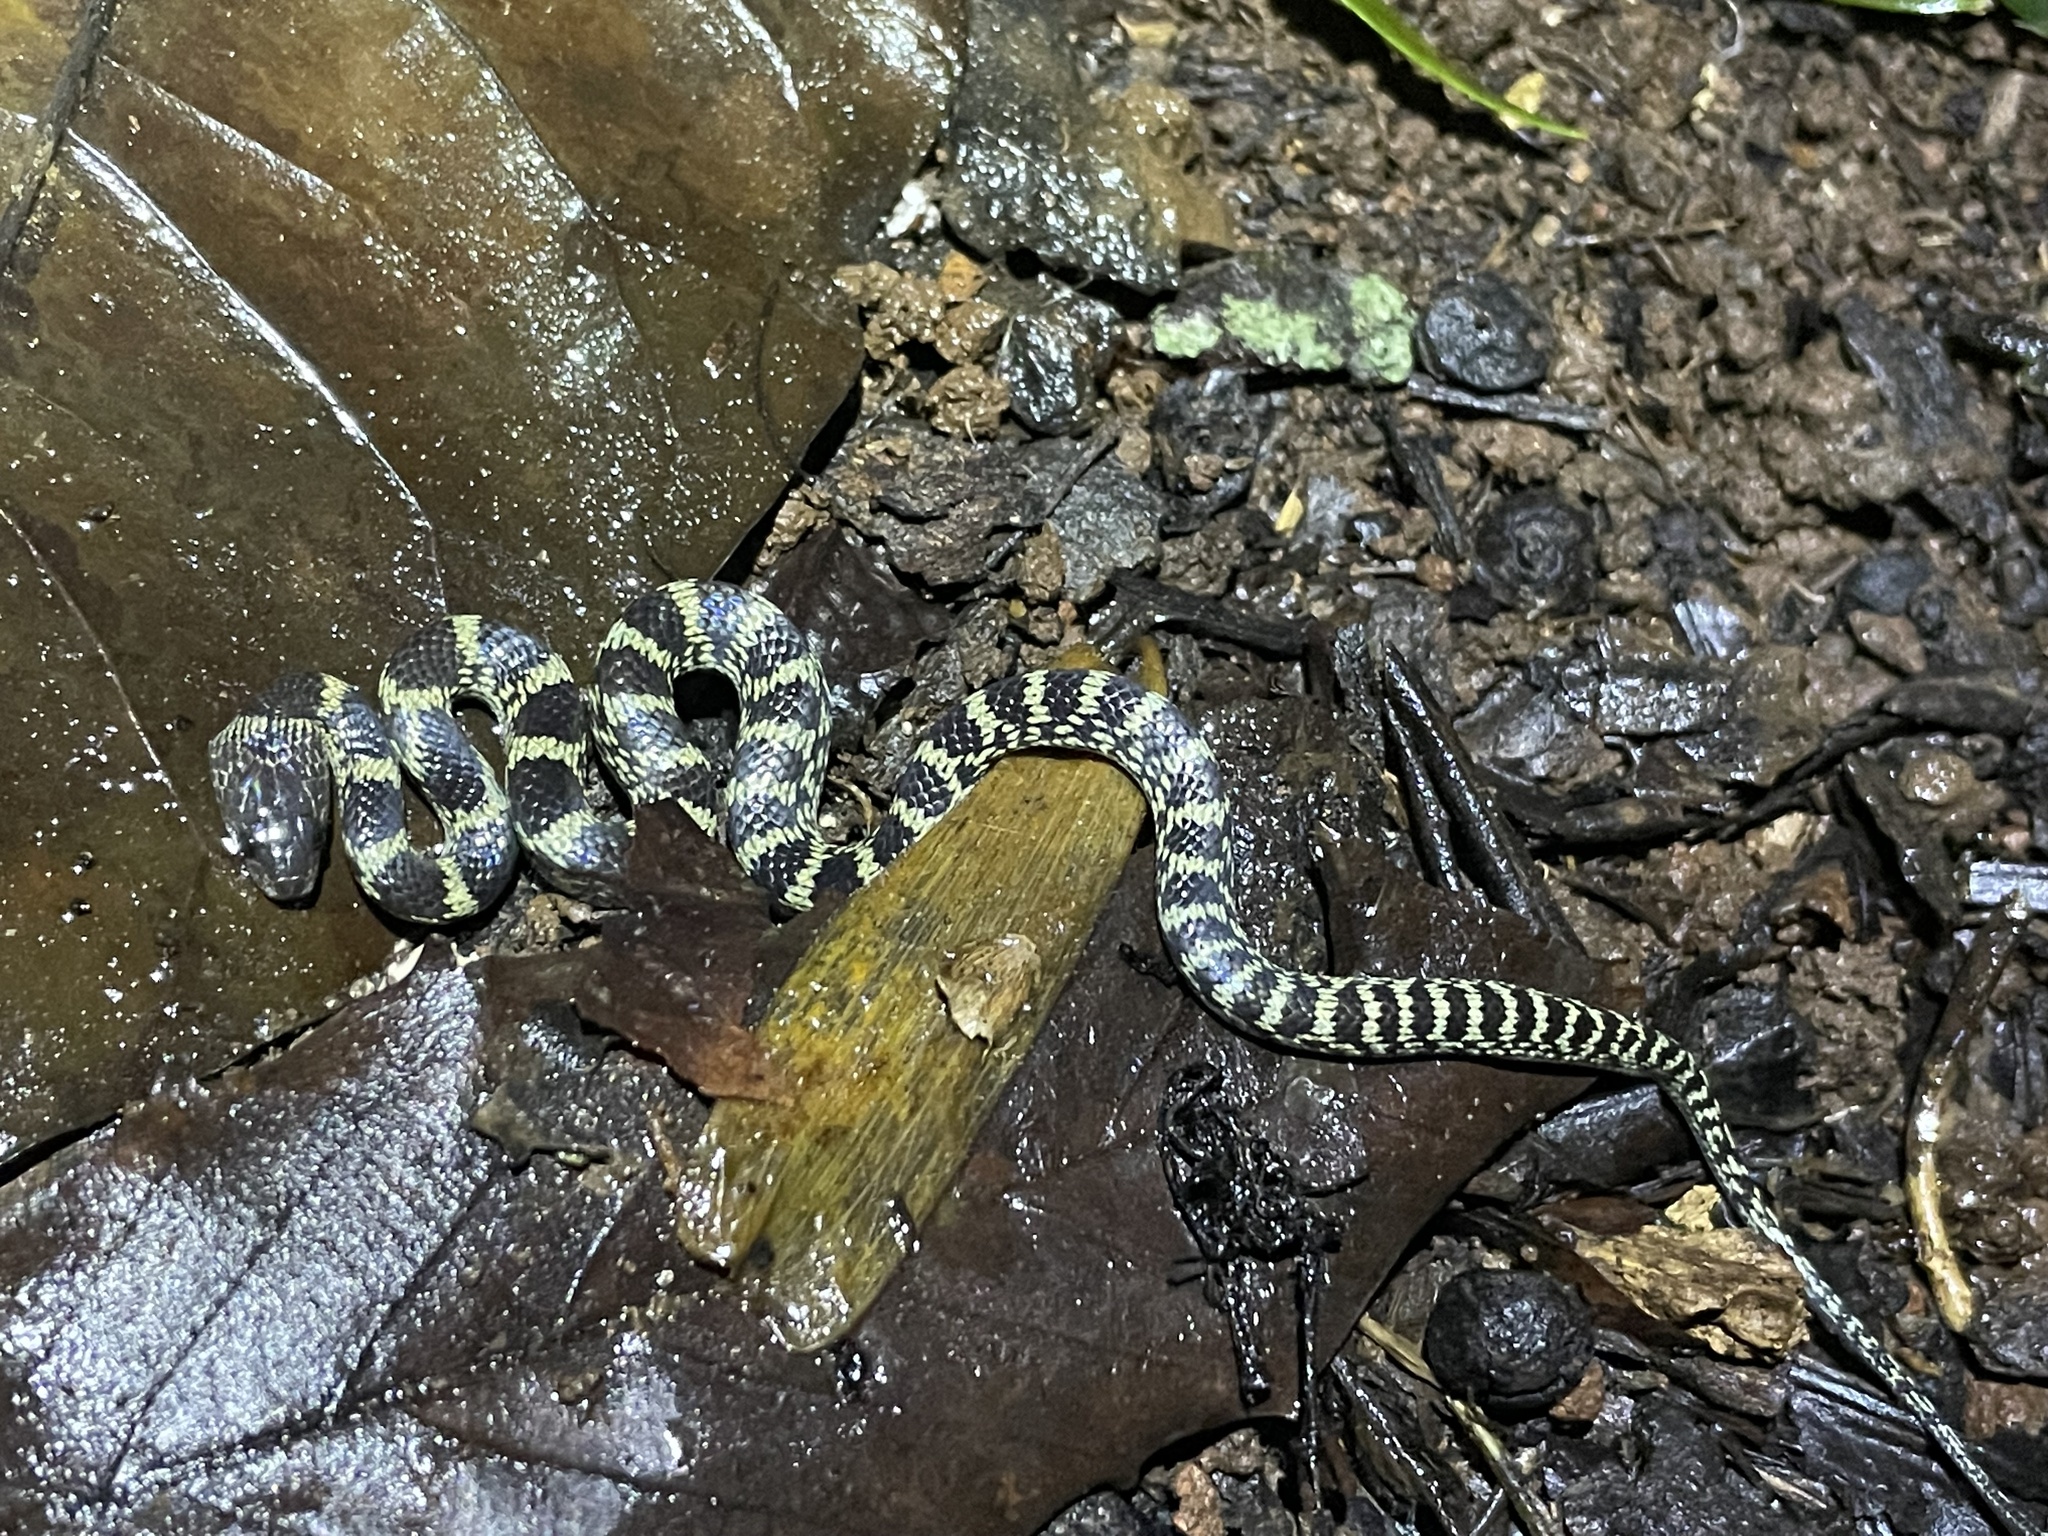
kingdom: Animalia
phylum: Chordata
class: Squamata
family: Colubridae
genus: Lycodon
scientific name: Lycodon travancoricus
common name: Travancore wolf snake
